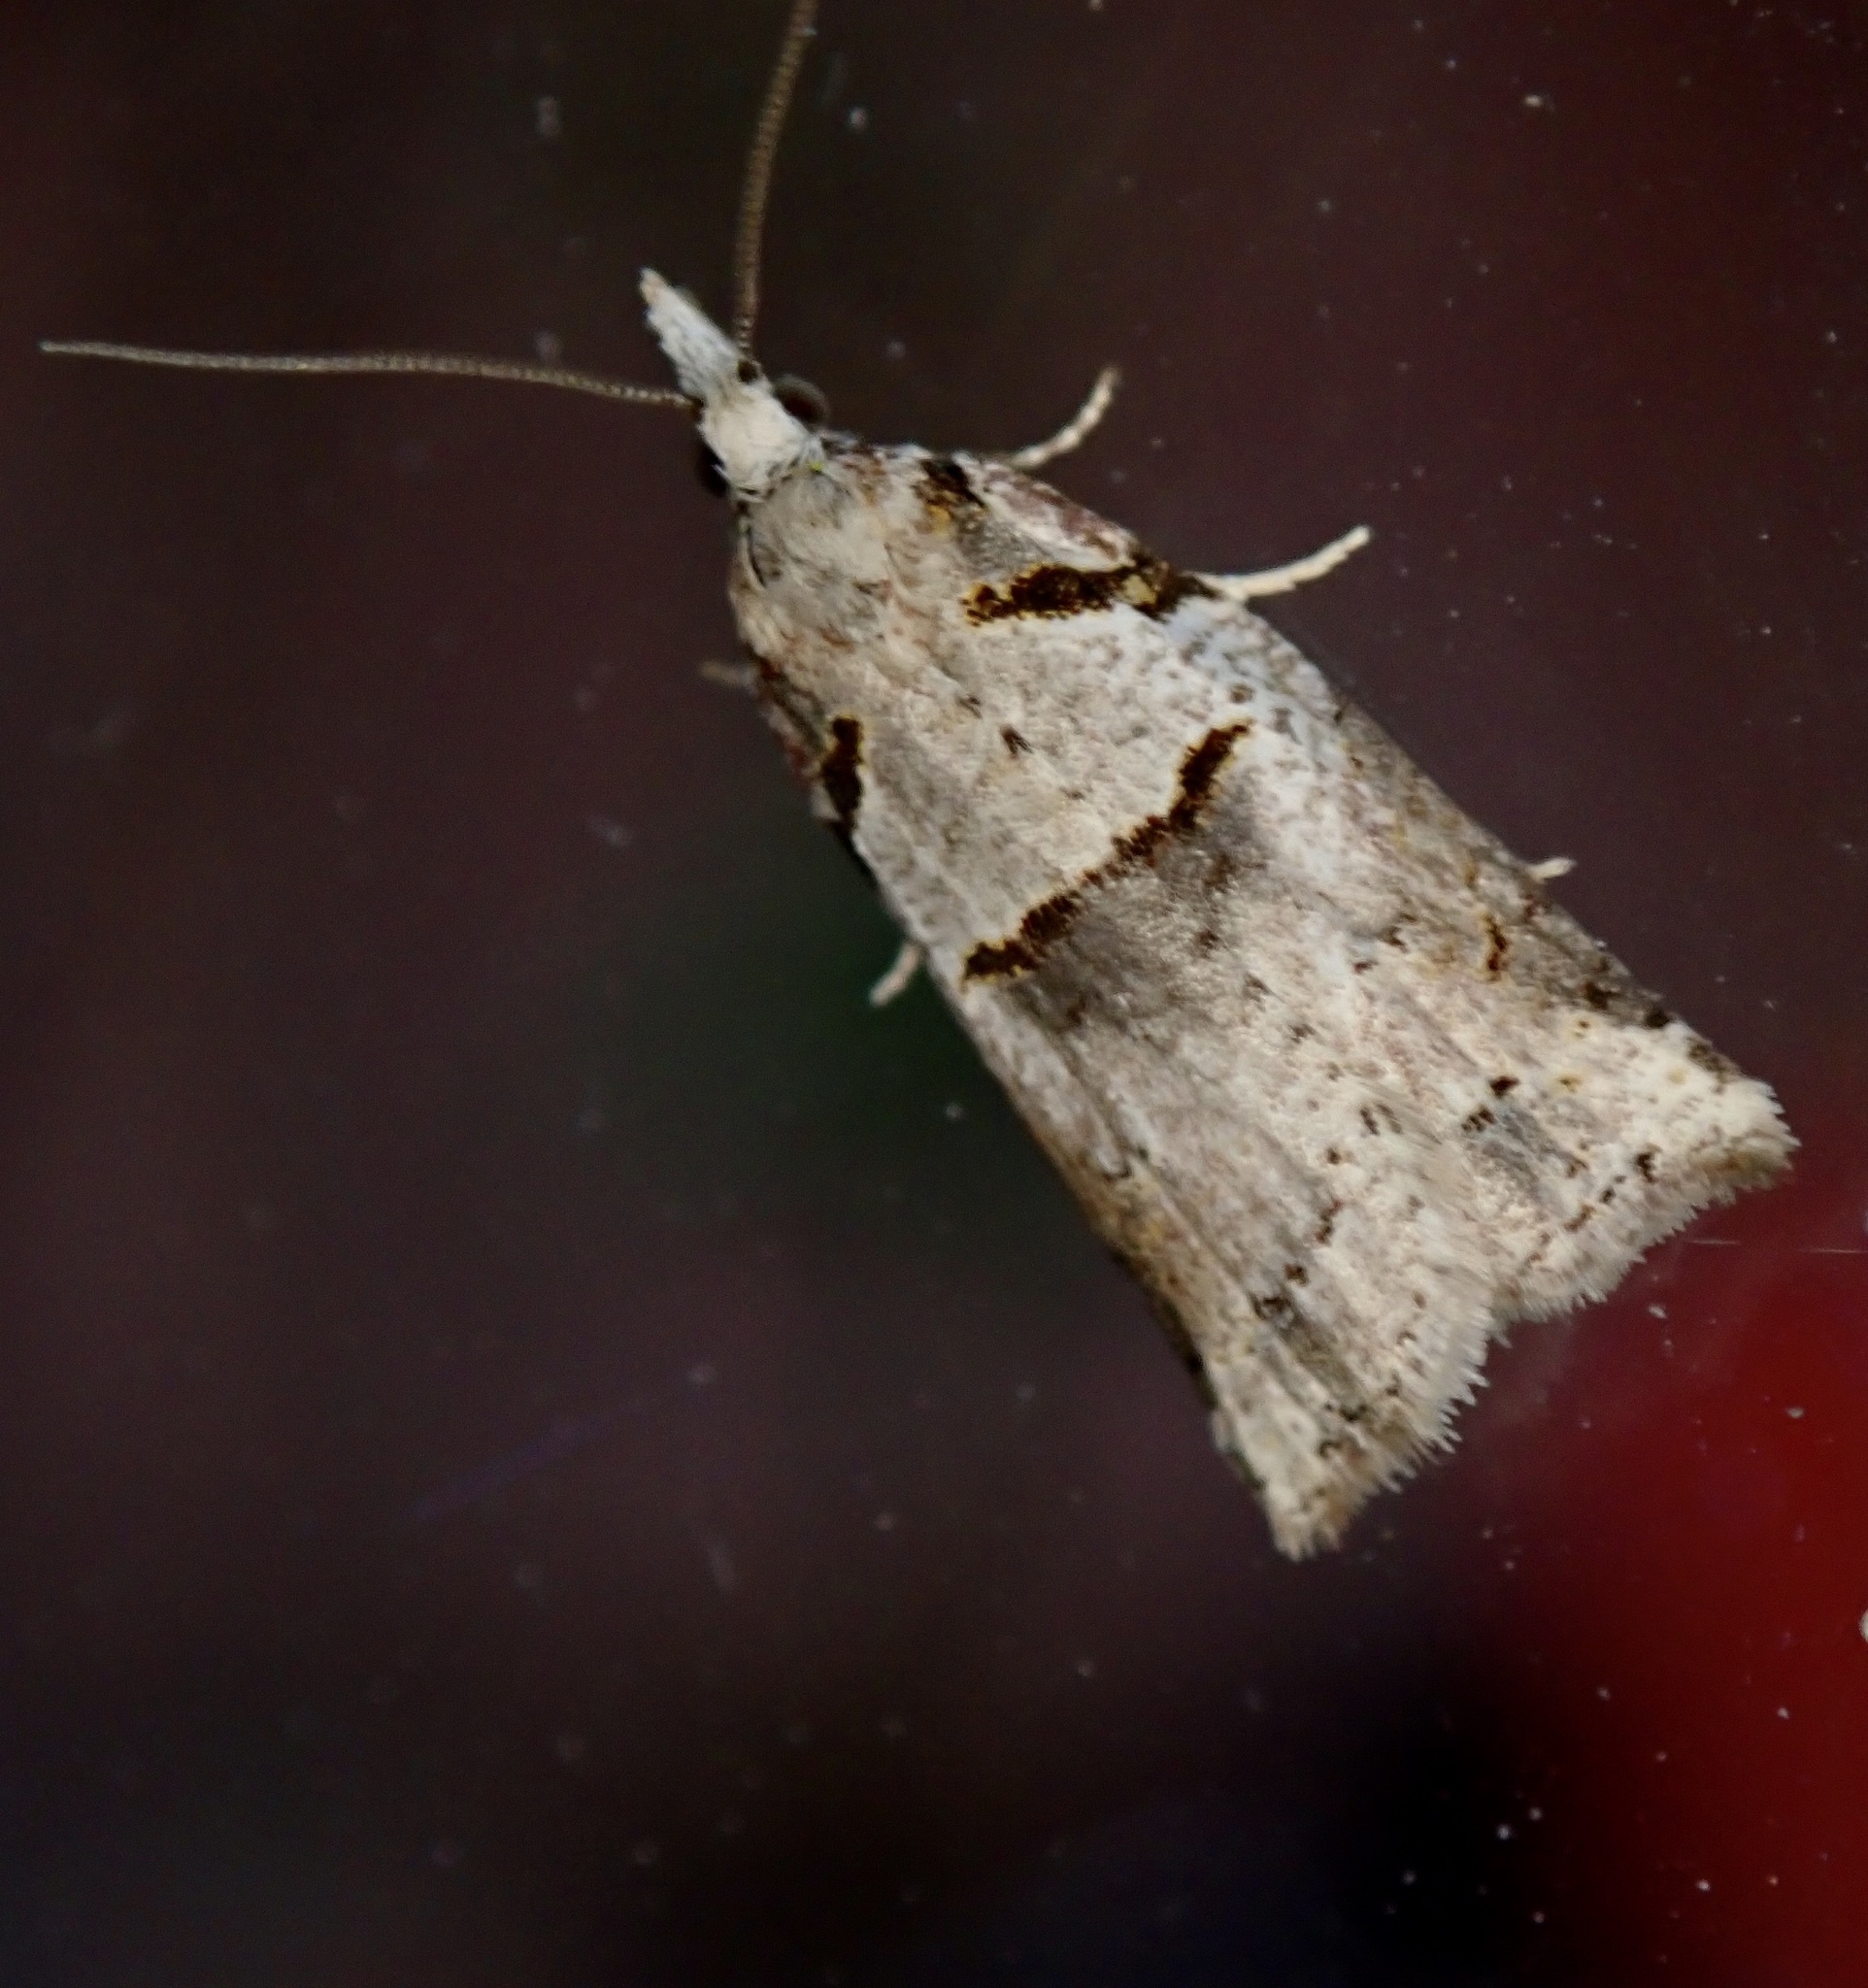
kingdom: Animalia
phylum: Arthropoda
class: Insecta
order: Lepidoptera
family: Tortricidae
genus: Harmologa
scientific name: Harmologa amplexana
